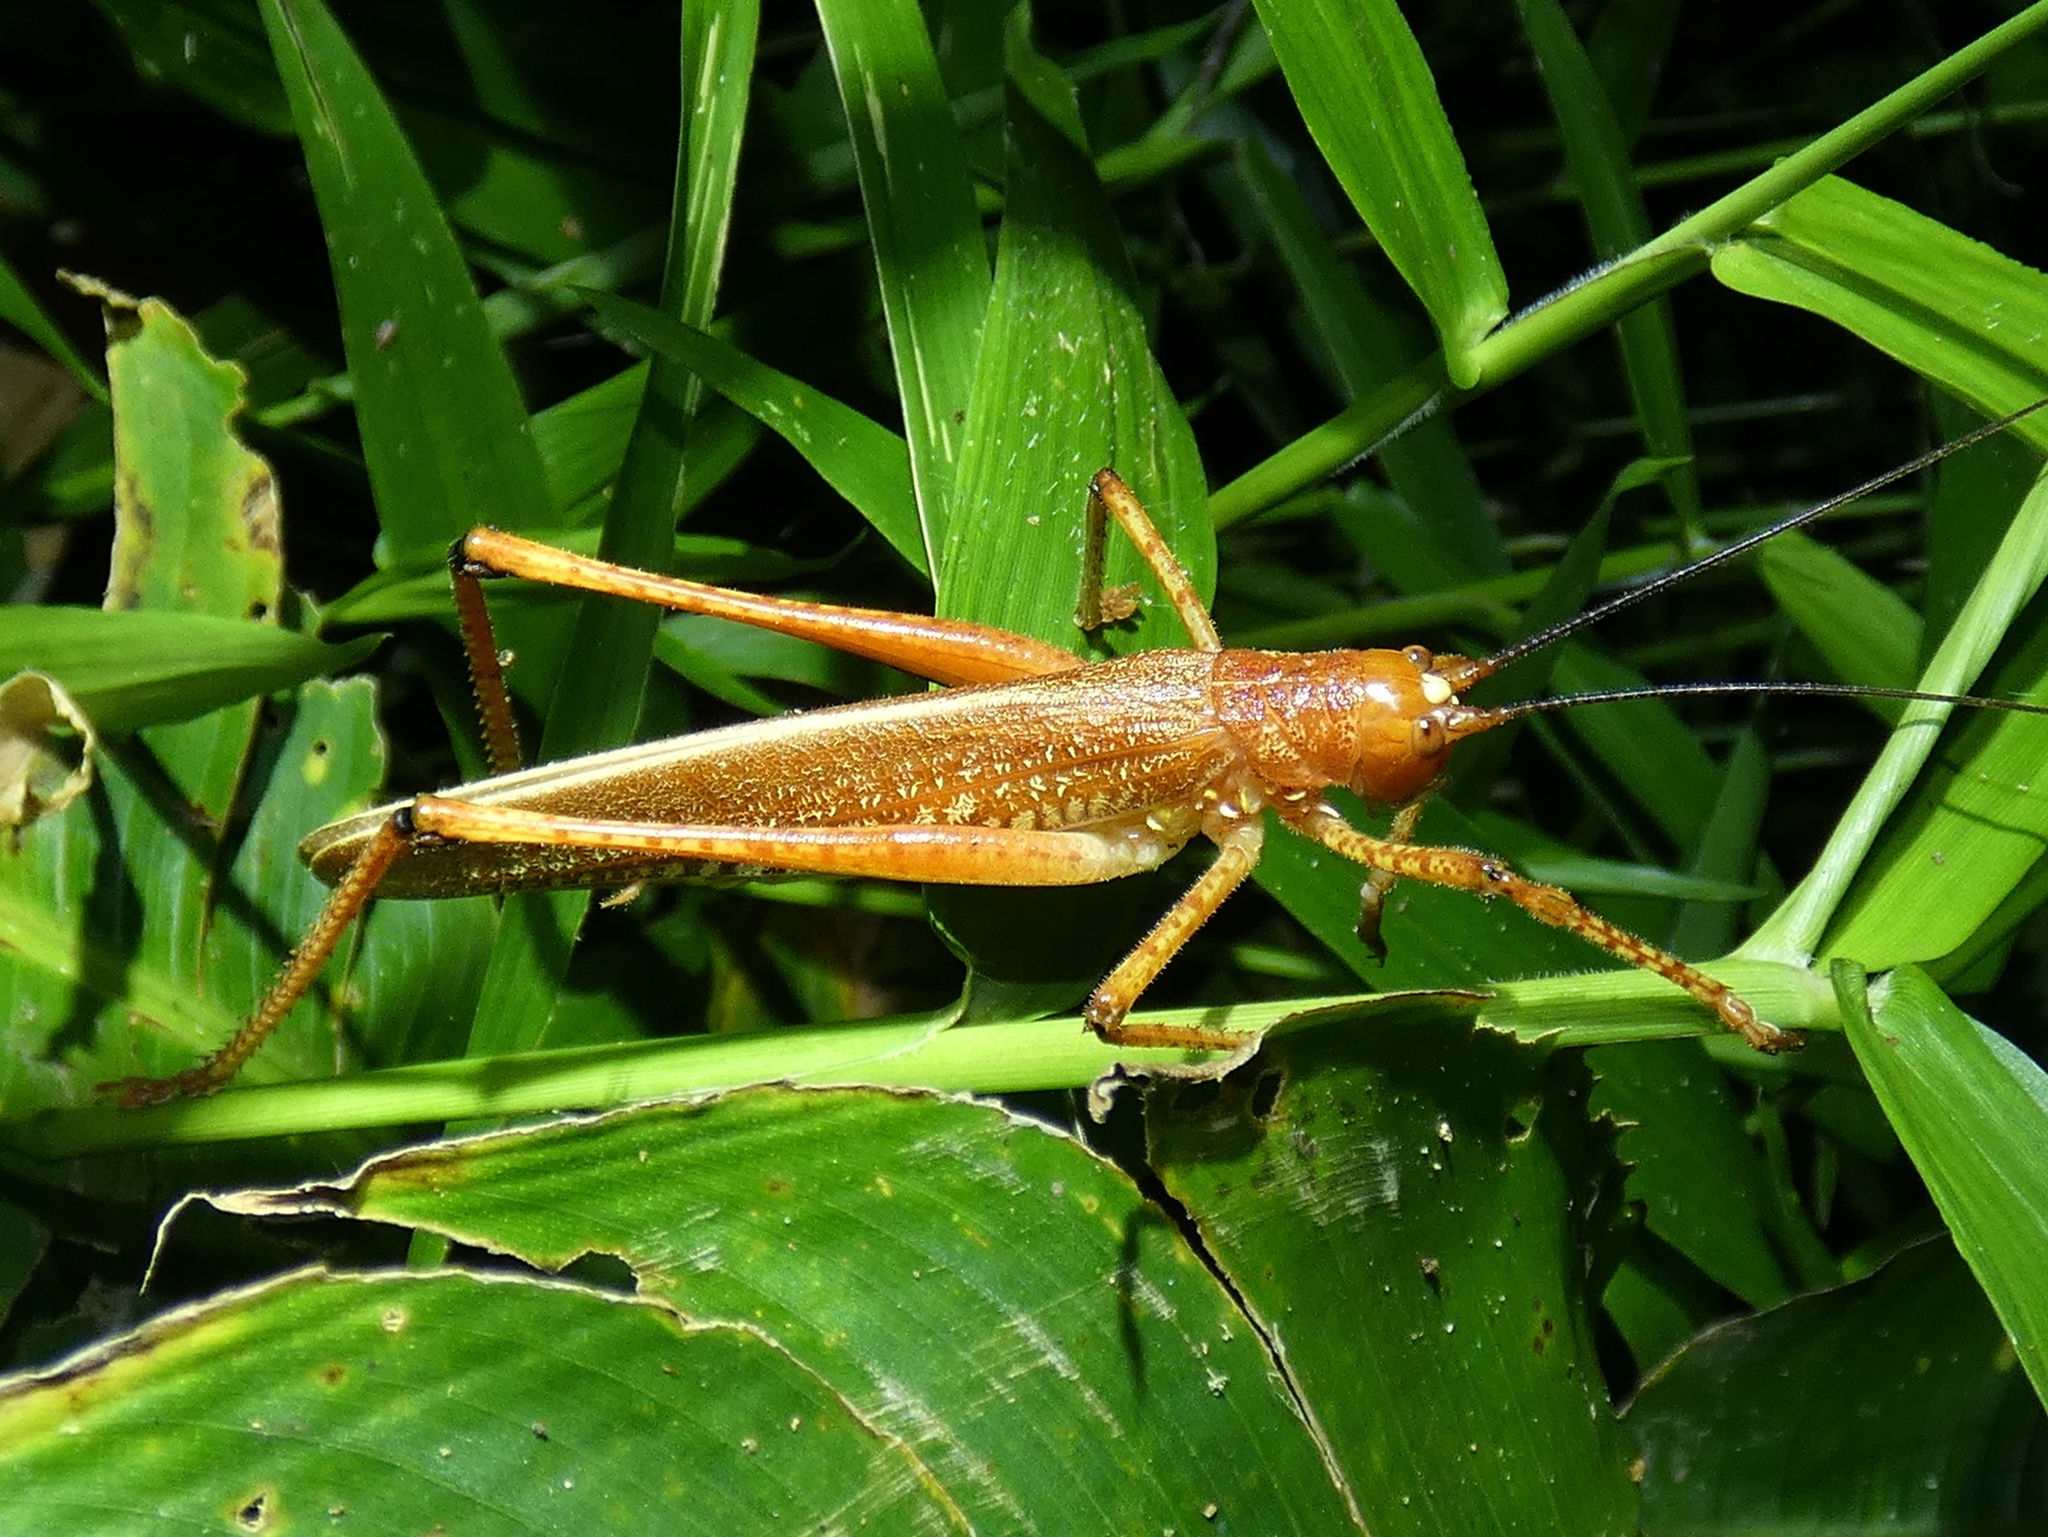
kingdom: Animalia
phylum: Arthropoda
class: Insecta
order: Orthoptera
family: Tettigoniidae
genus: Ischnomela
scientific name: Ischnomela gracilis
